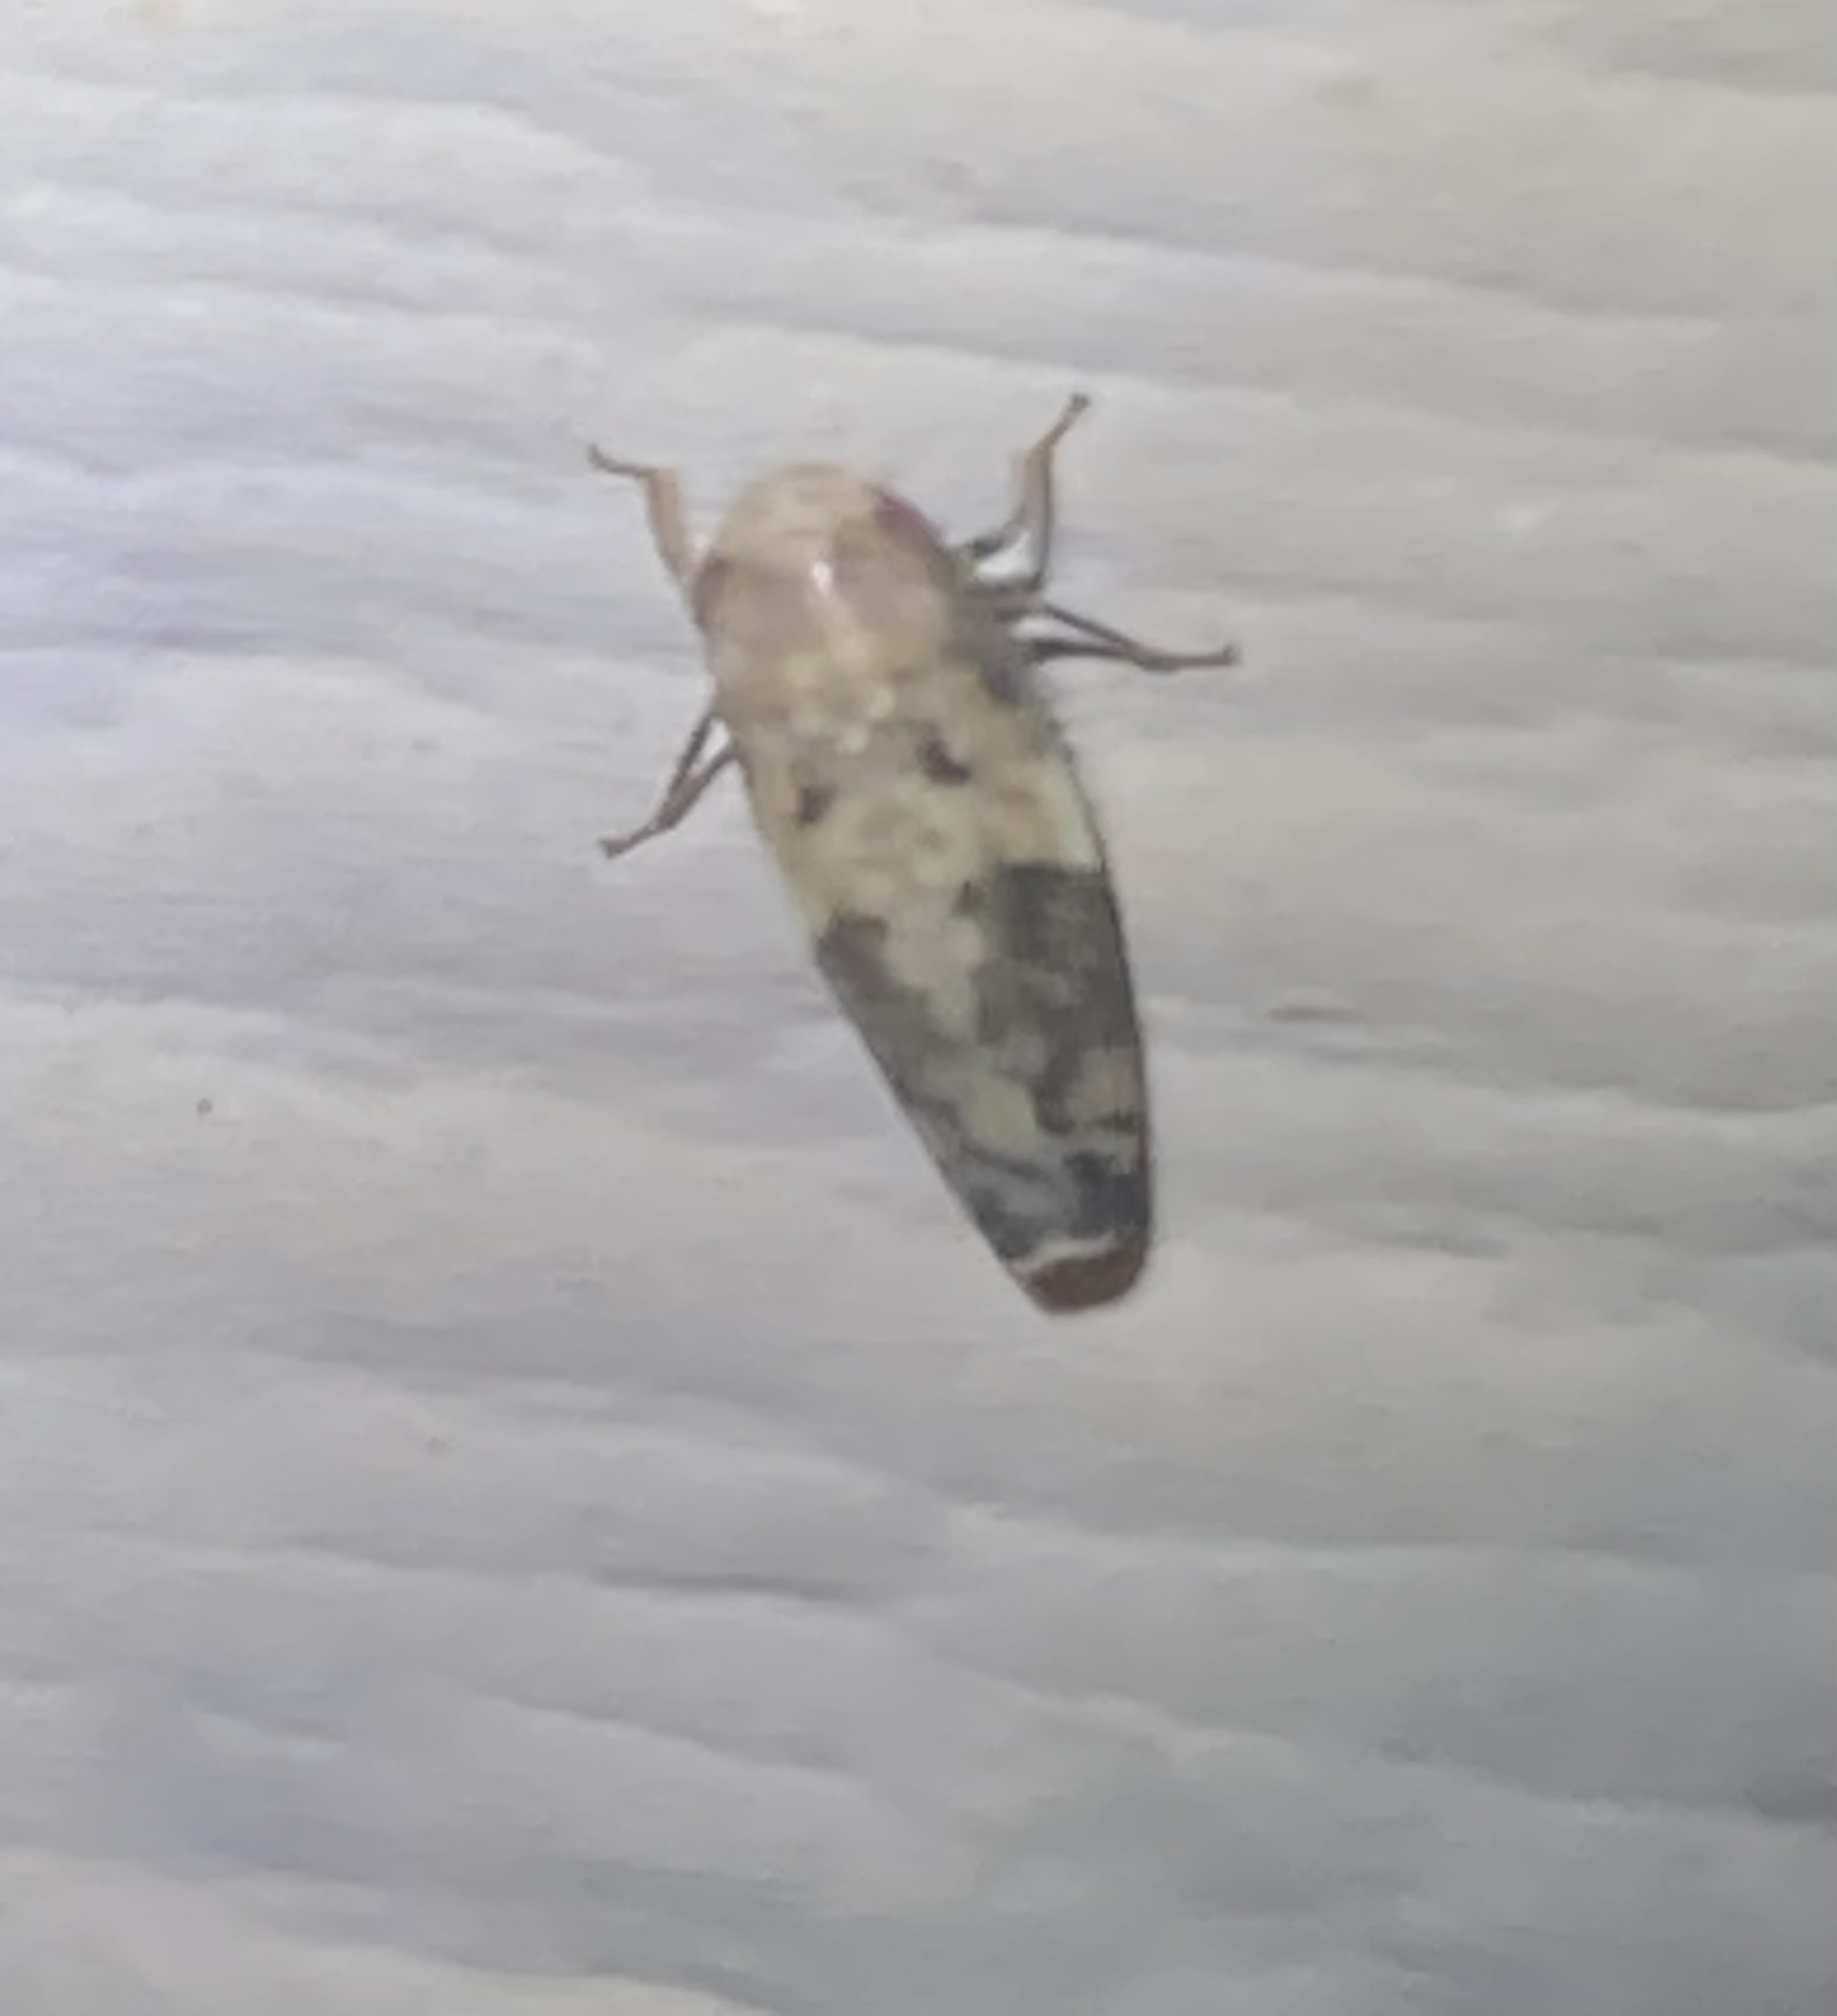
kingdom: Animalia
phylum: Arthropoda
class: Insecta
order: Hemiptera
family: Cicadellidae
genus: Menosoma
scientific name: Menosoma cinctum
